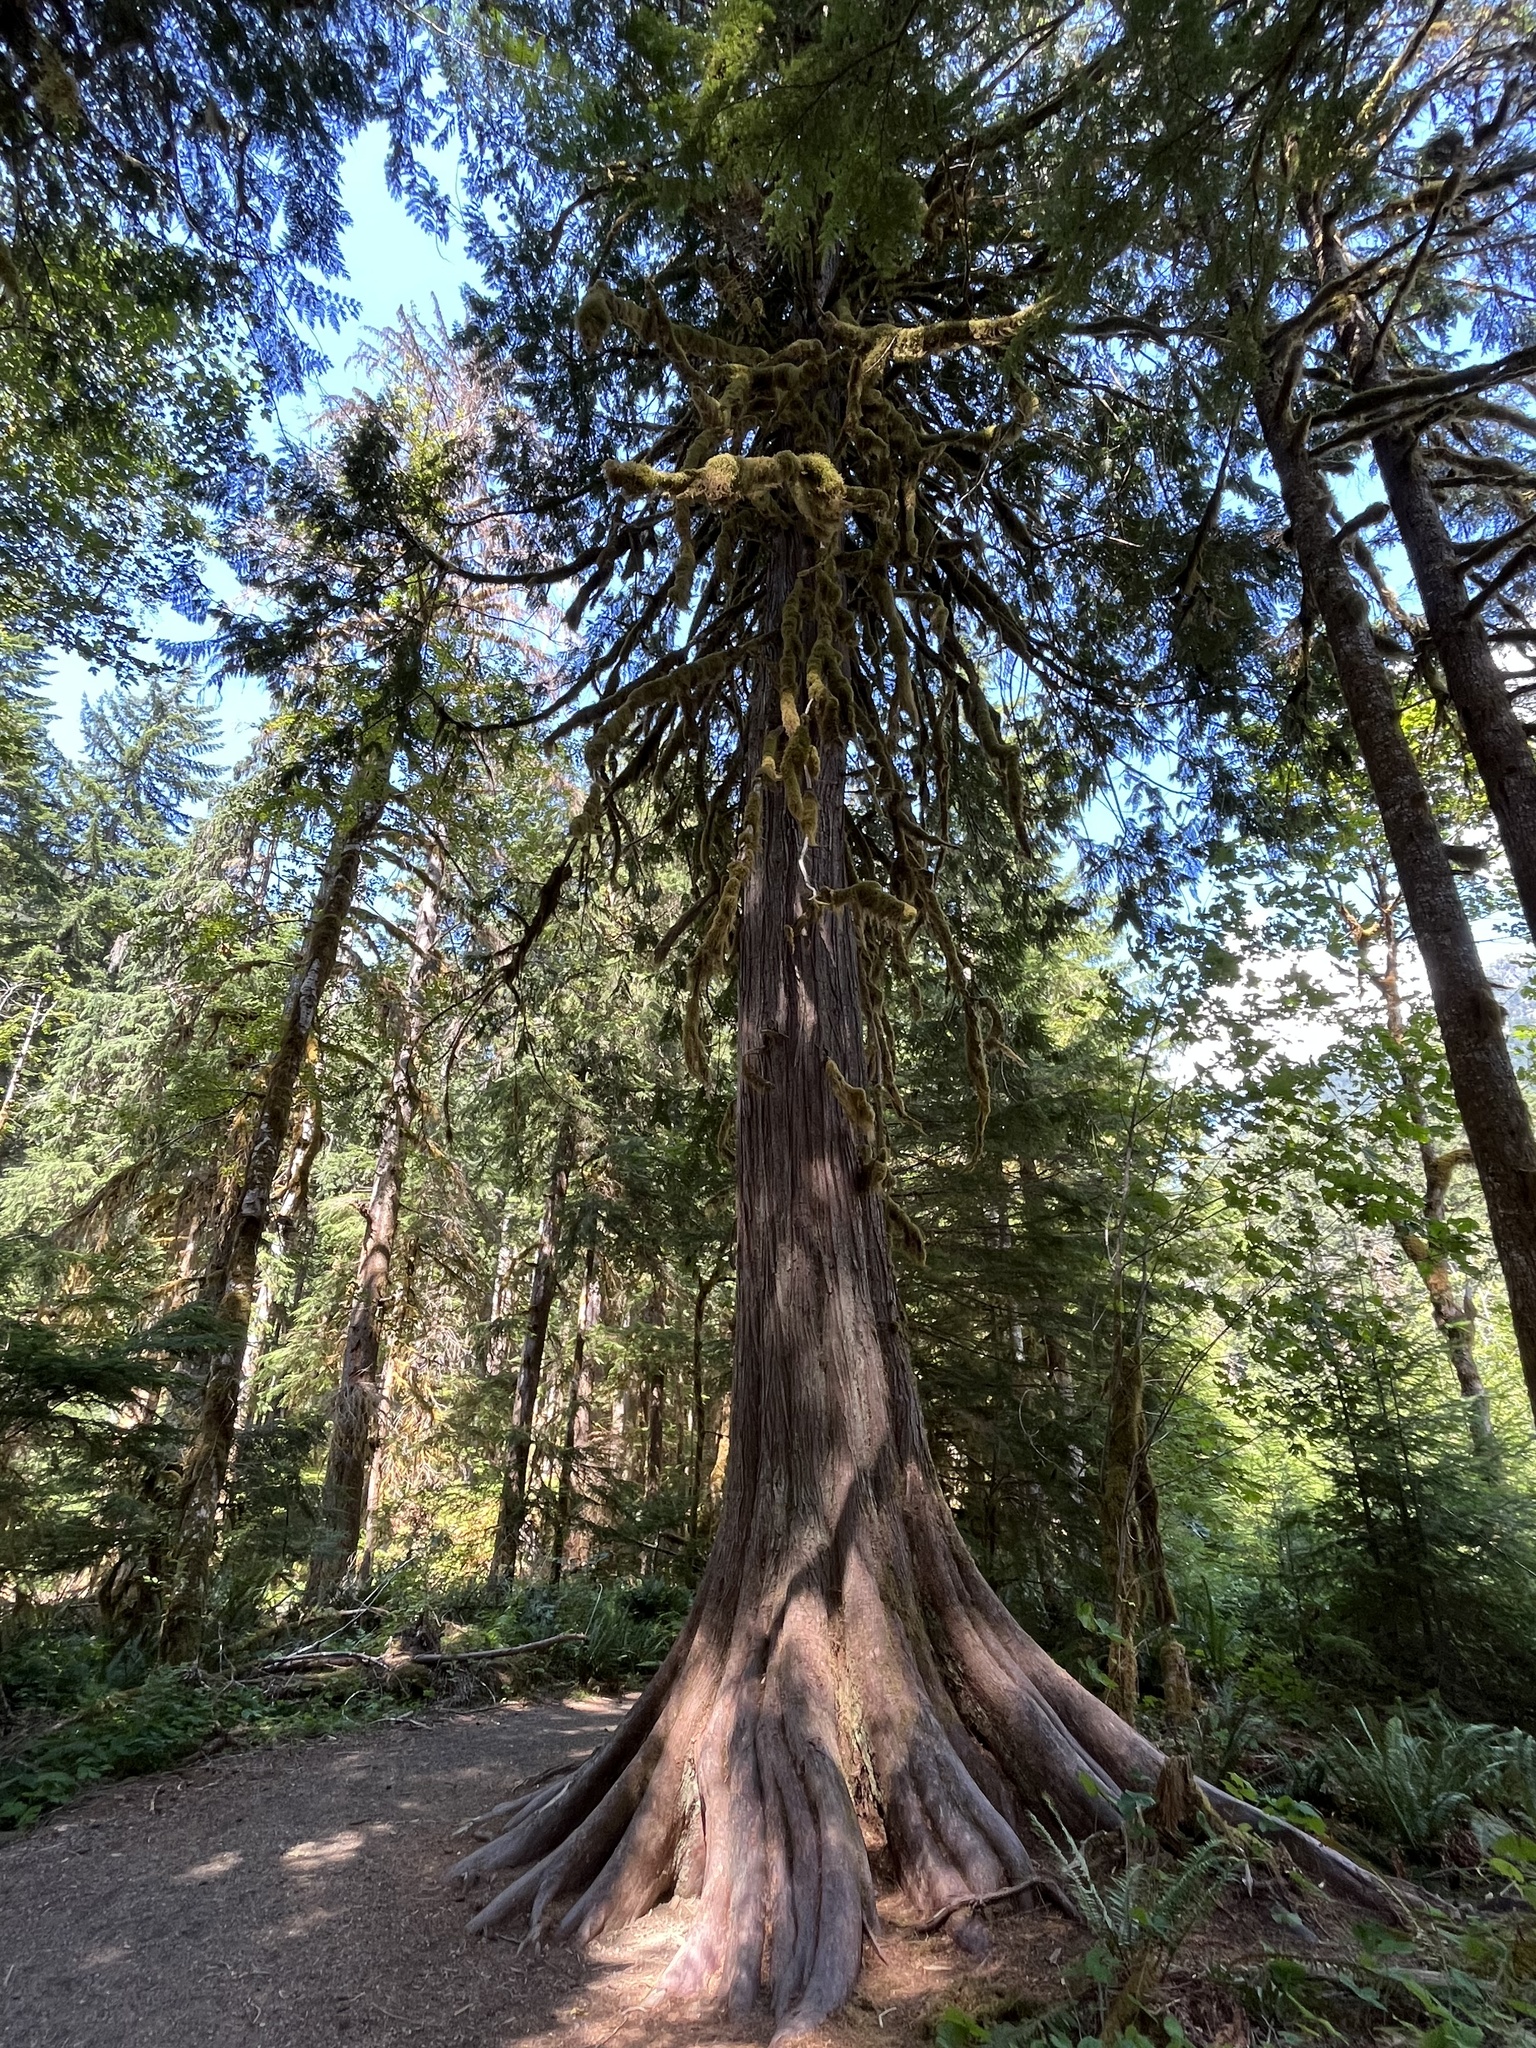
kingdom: Plantae
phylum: Tracheophyta
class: Pinopsida
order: Pinales
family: Cupressaceae
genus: Thuja
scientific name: Thuja plicata
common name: Western red-cedar
